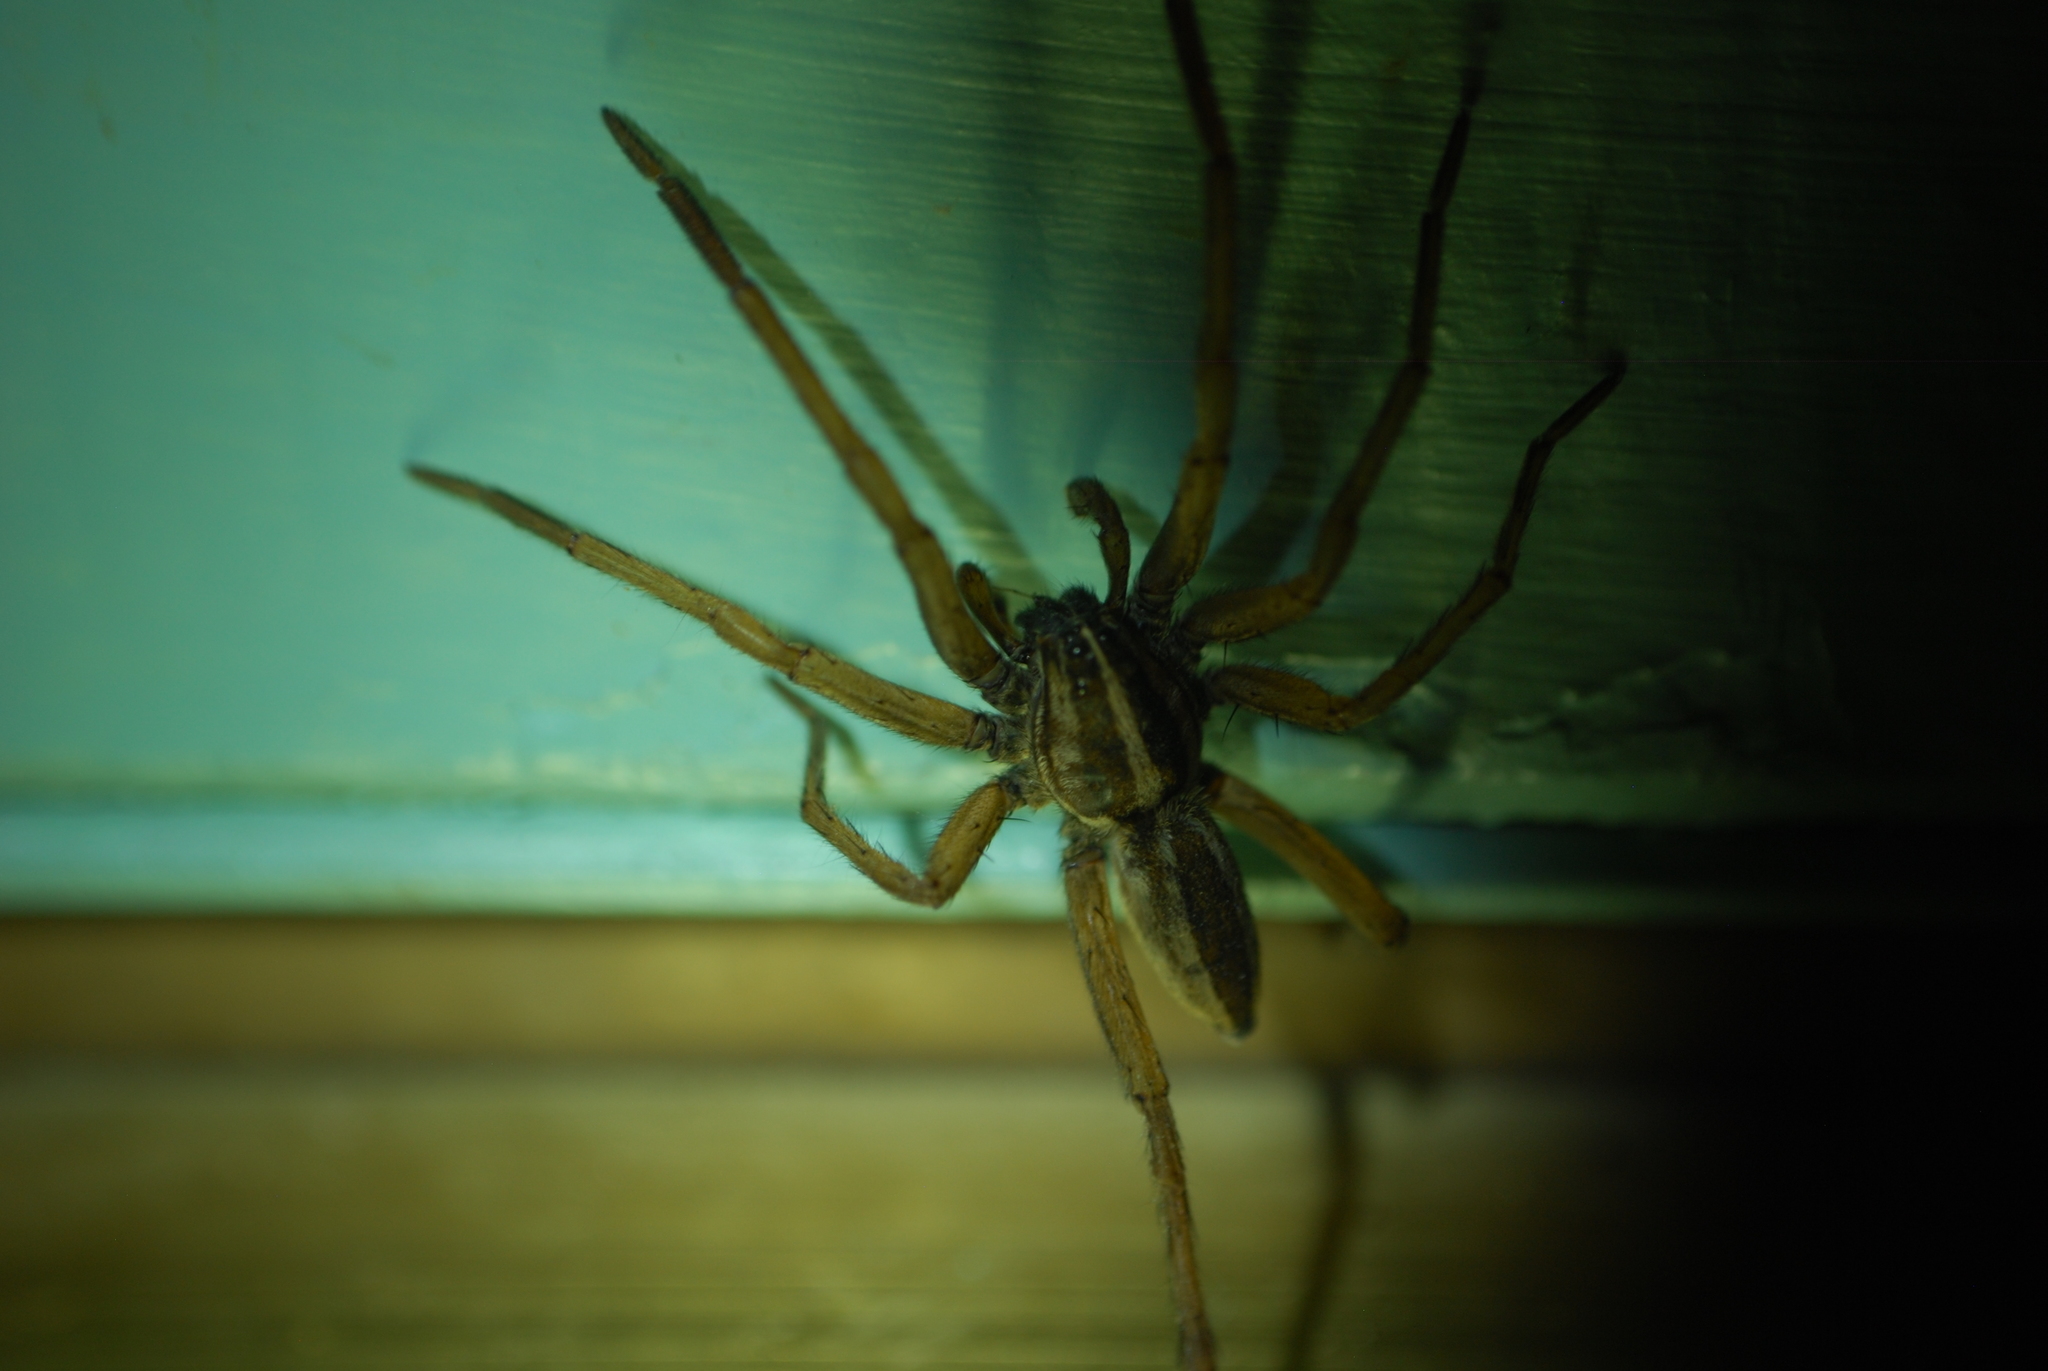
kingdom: Animalia
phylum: Arthropoda
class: Arachnida
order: Araneae
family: Lycosidae
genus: Rabidosa
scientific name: Rabidosa punctulata
